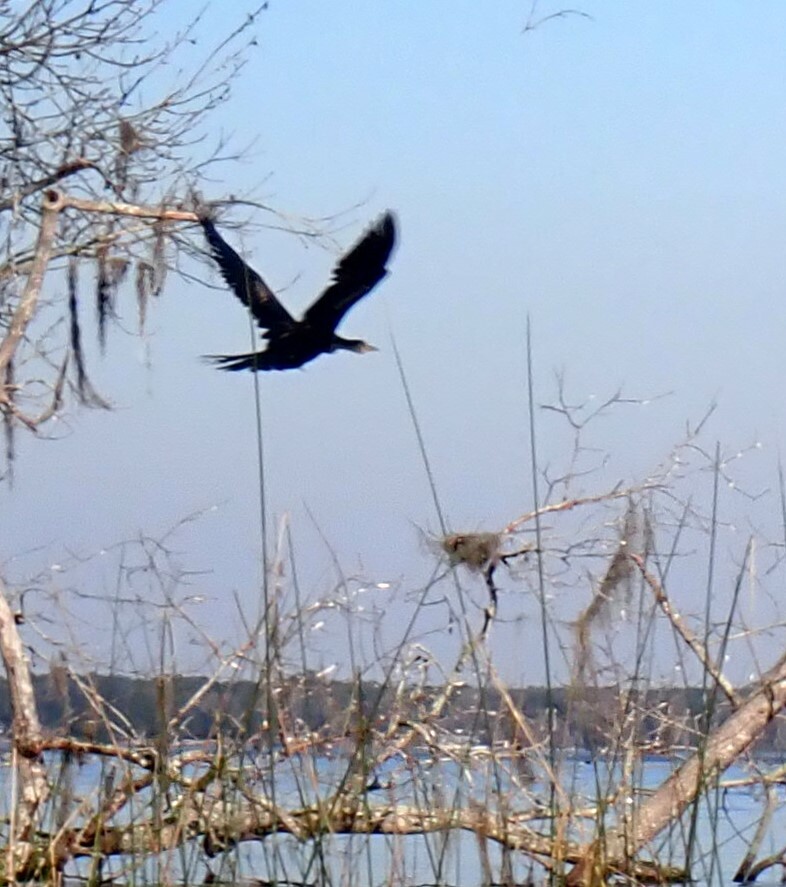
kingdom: Animalia
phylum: Chordata
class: Aves
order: Suliformes
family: Anhingidae
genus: Anhinga
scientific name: Anhinga anhinga
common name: Anhinga
